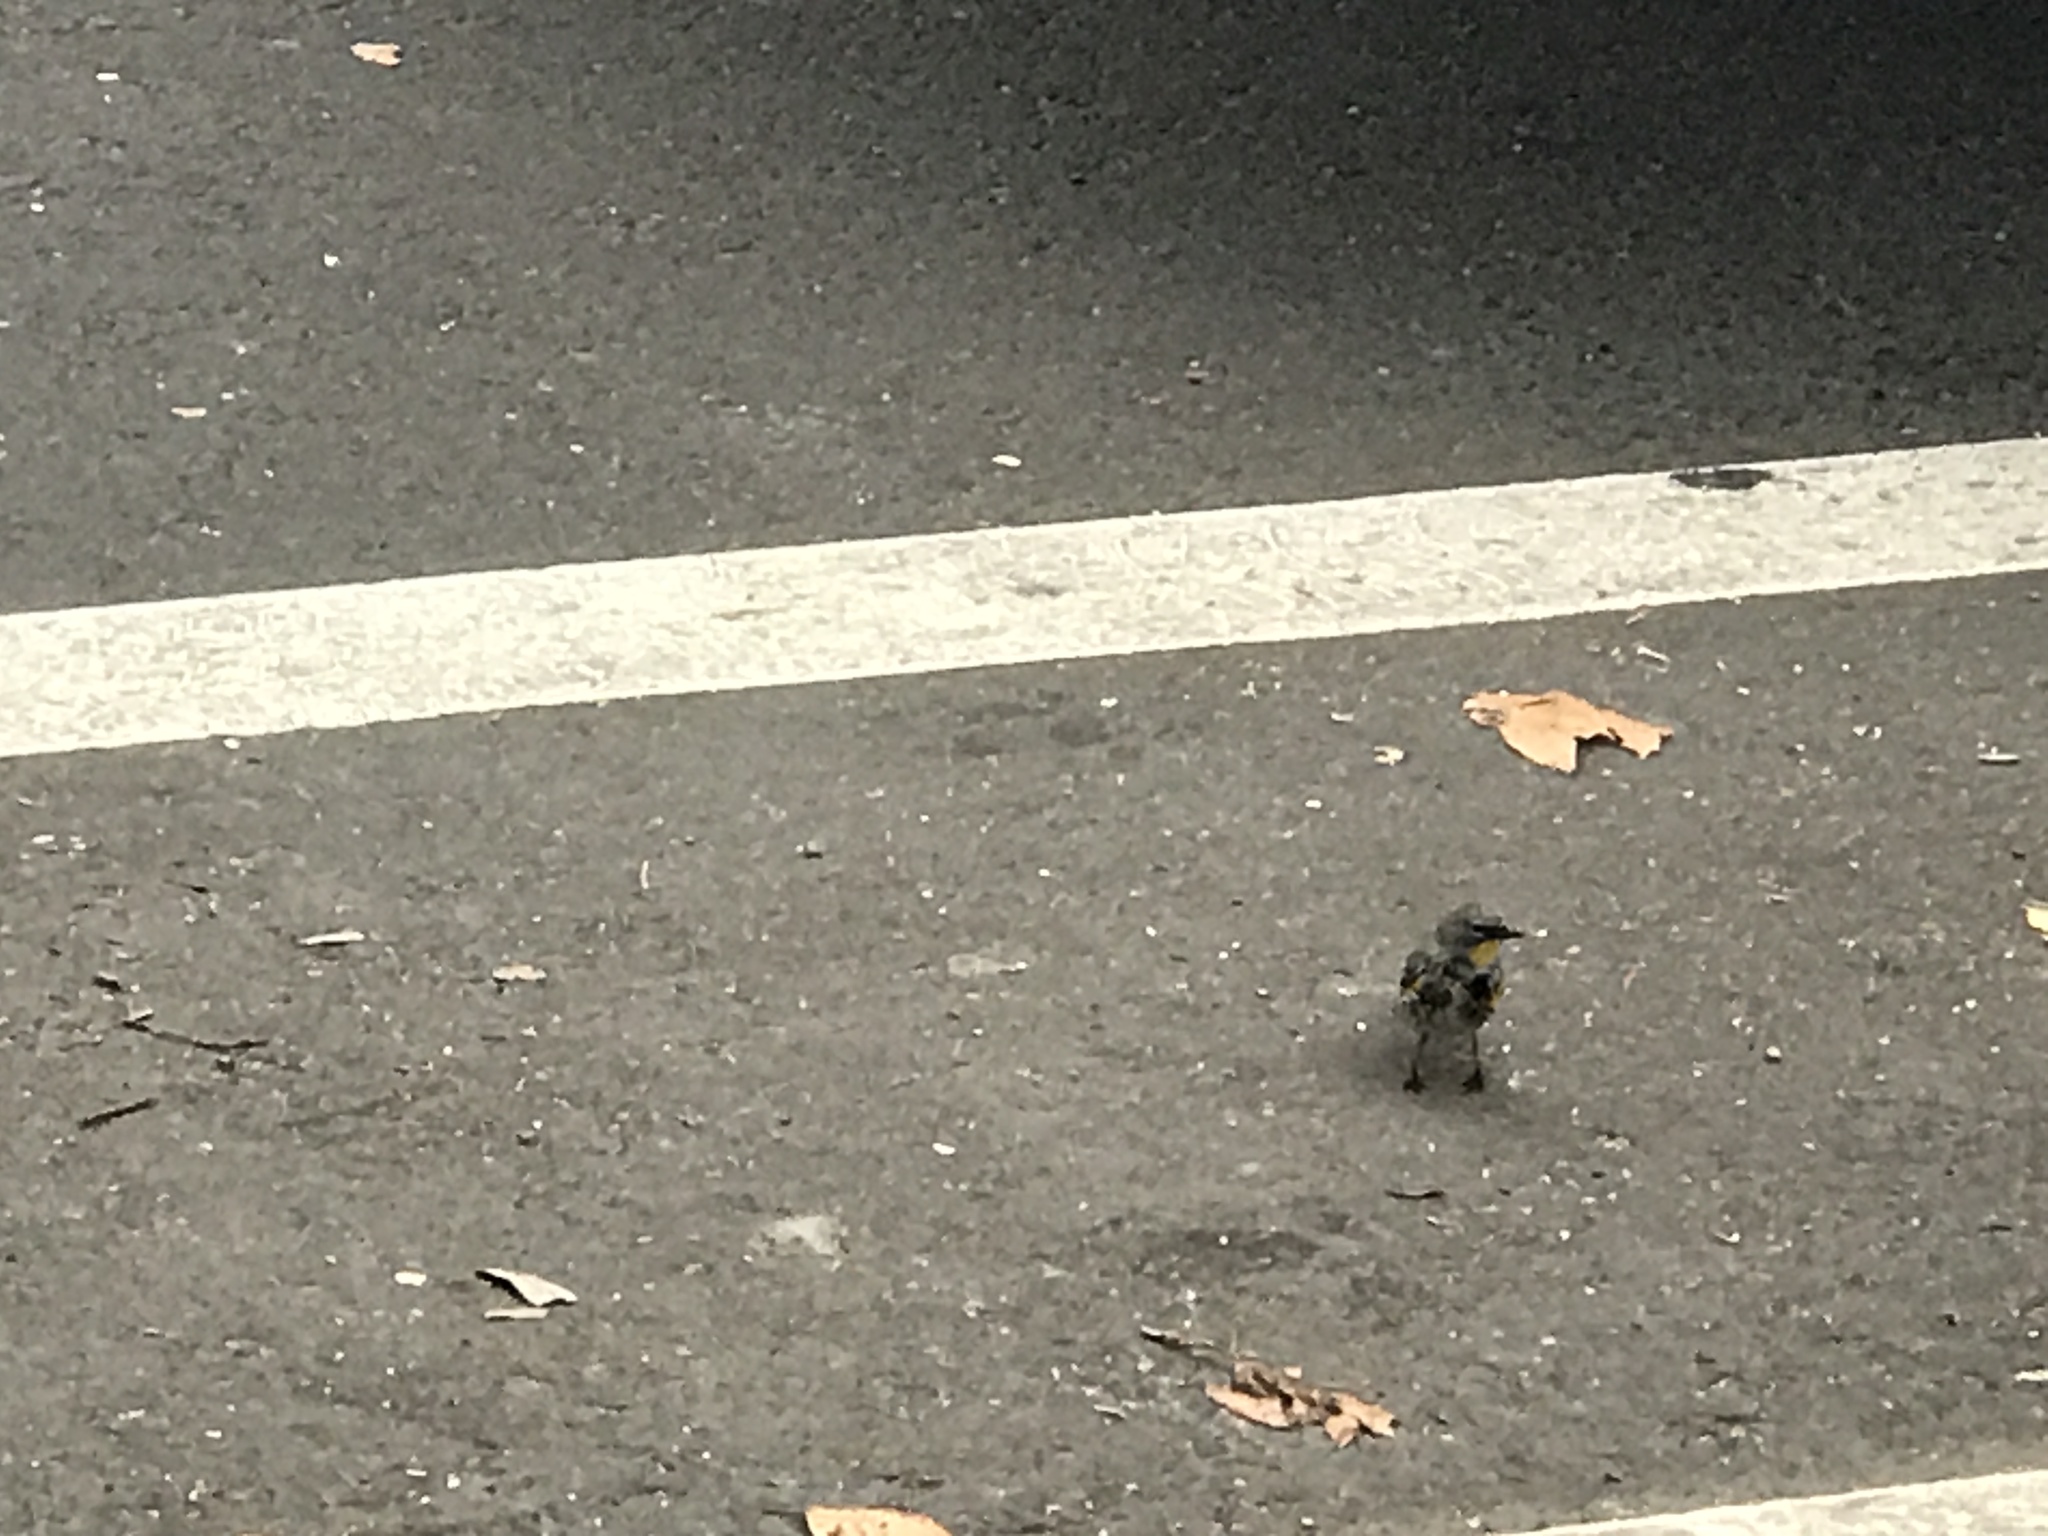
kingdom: Animalia
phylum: Chordata
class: Aves
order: Passeriformes
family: Parulidae
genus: Setophaga
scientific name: Setophaga coronata
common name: Myrtle warbler
